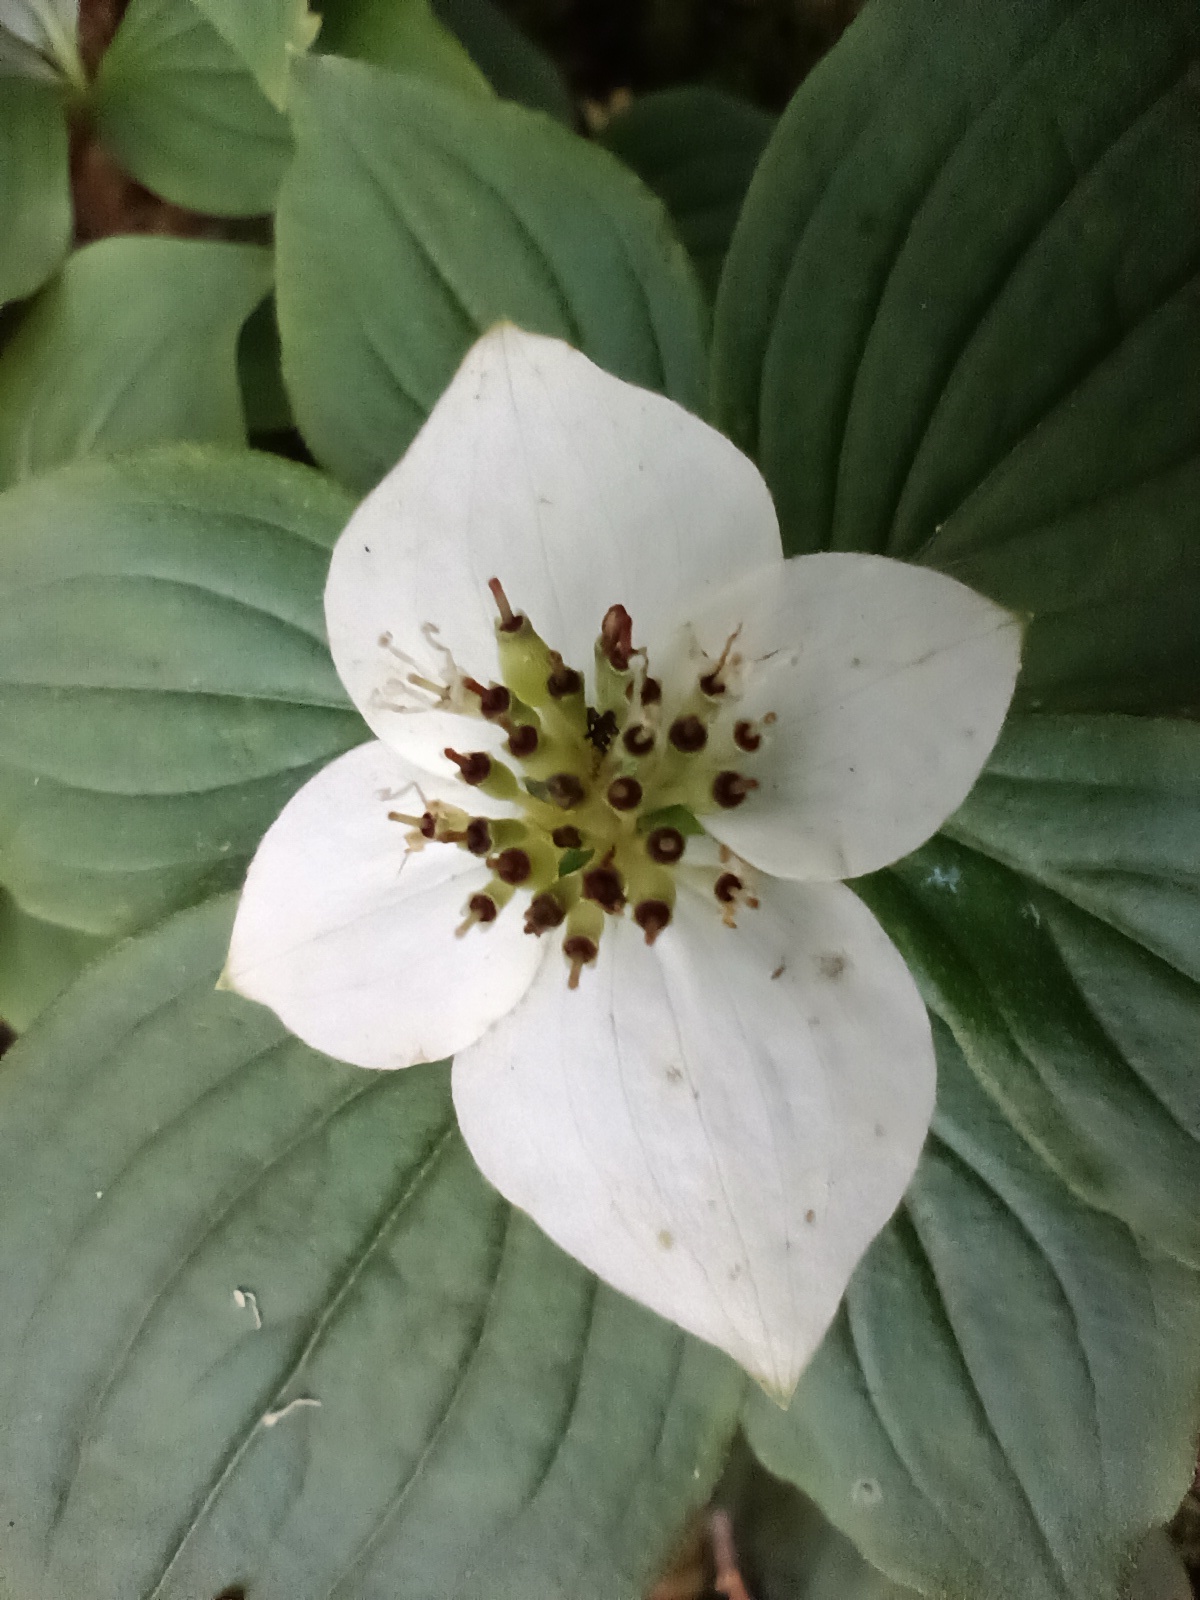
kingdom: Plantae
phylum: Tracheophyta
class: Magnoliopsida
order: Cornales
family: Cornaceae
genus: Cornus
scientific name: Cornus canadensis
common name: Creeping dogwood
